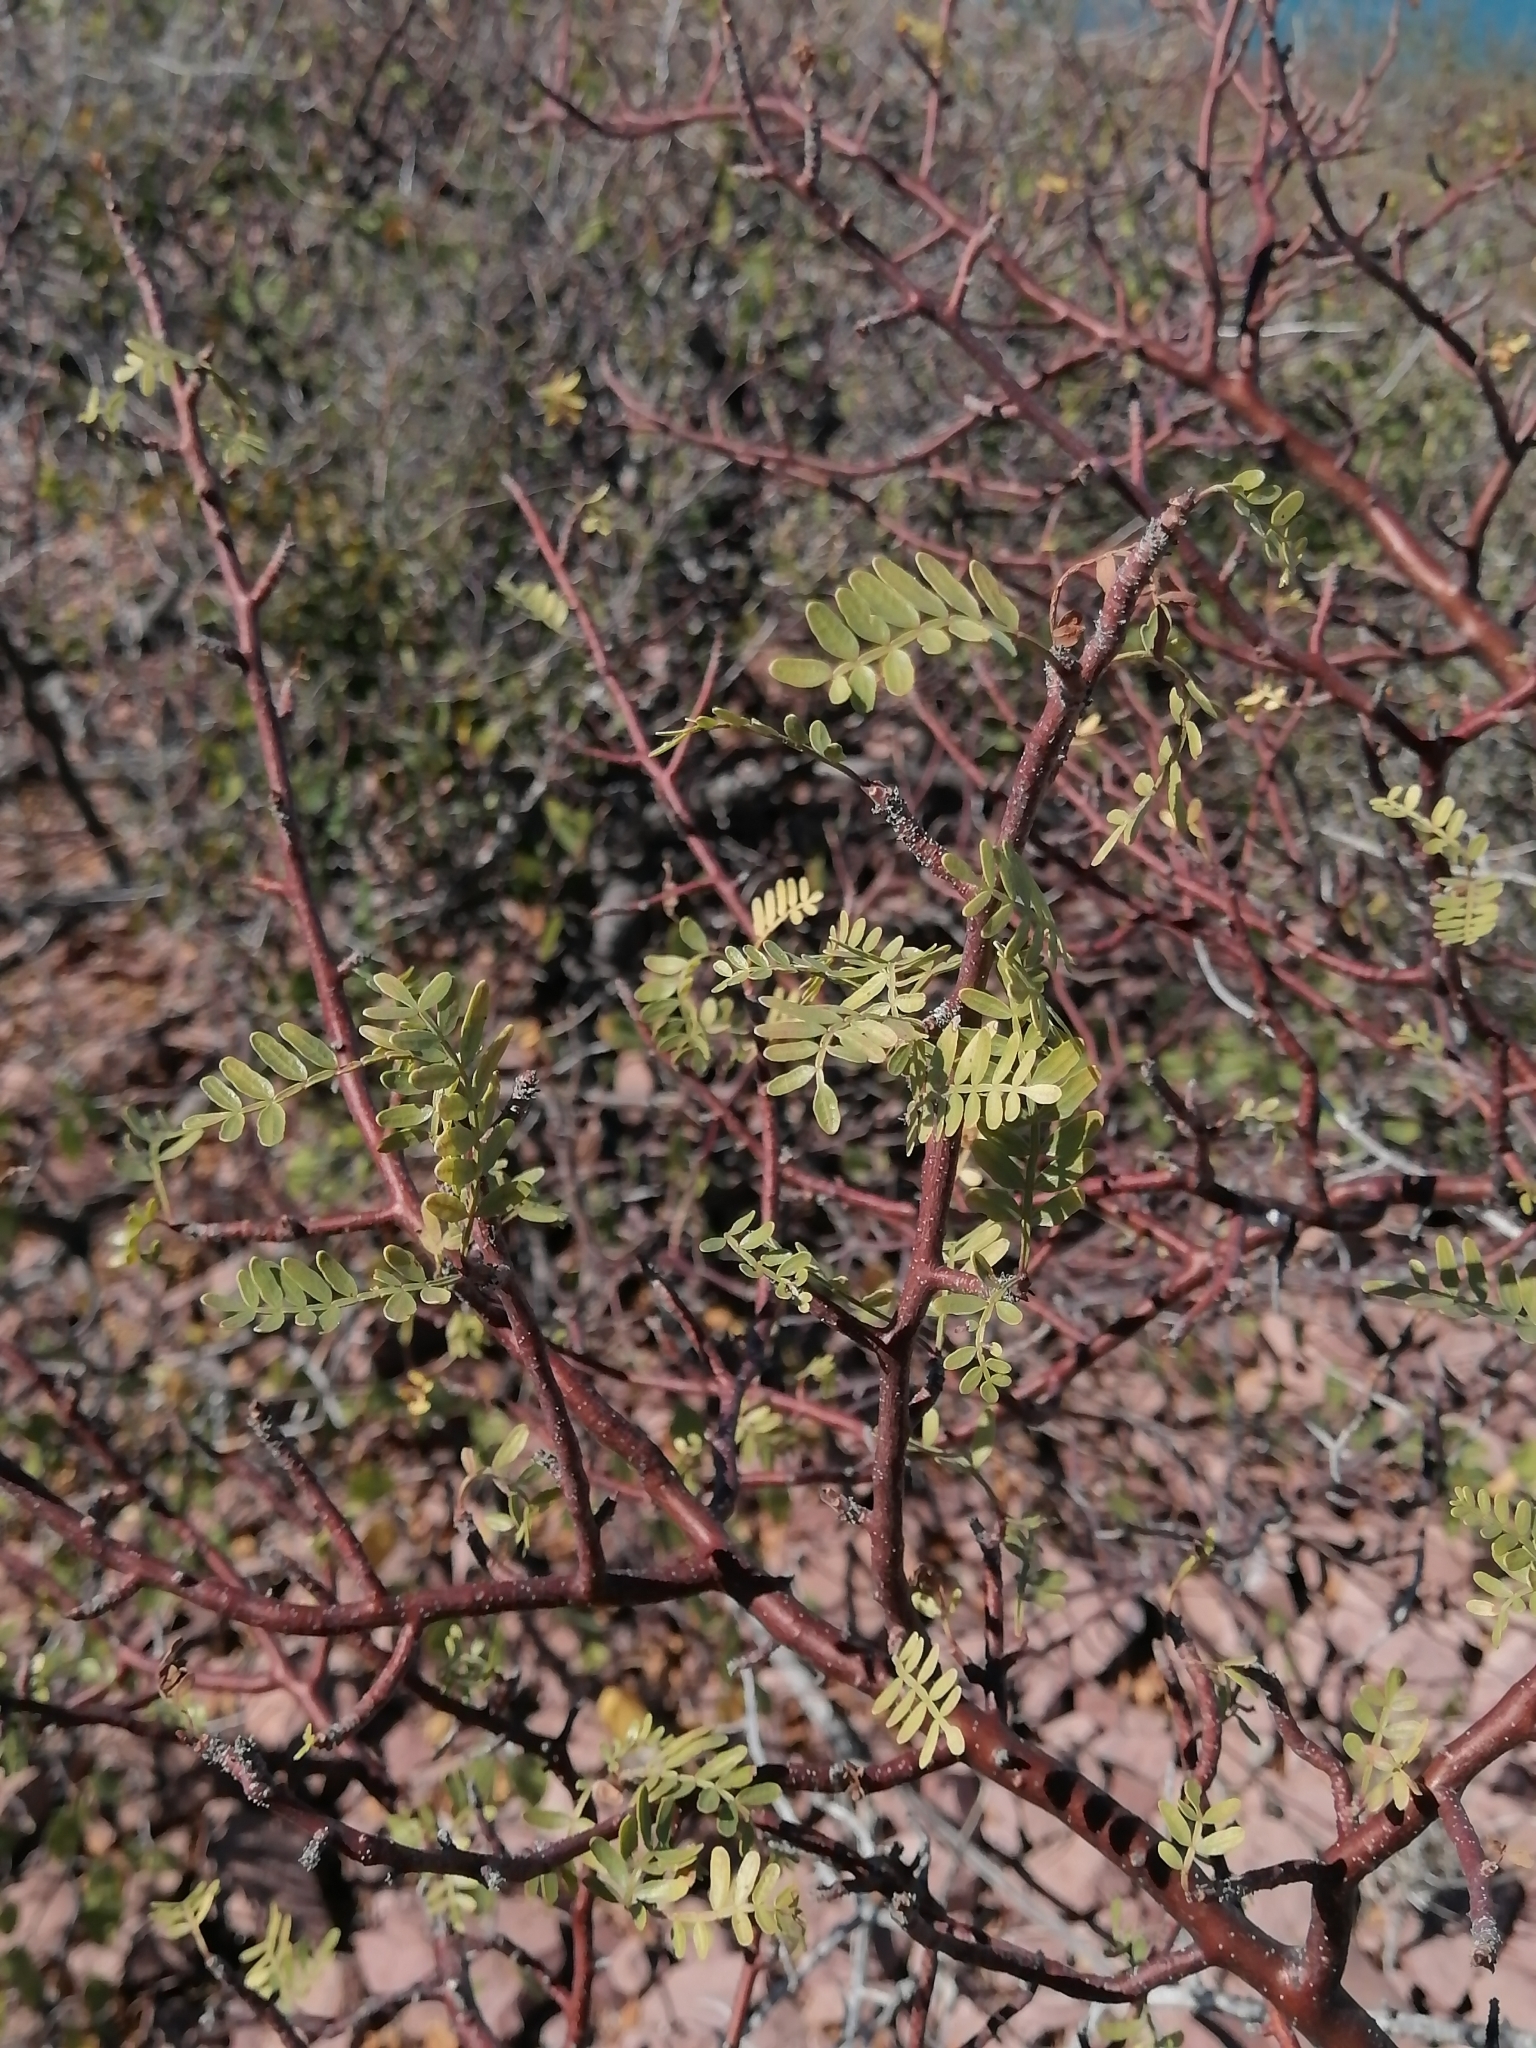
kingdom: Plantae
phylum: Tracheophyta
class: Magnoliopsida
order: Sapindales
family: Burseraceae
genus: Bursera
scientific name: Bursera microphylla
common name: Elephant tree
